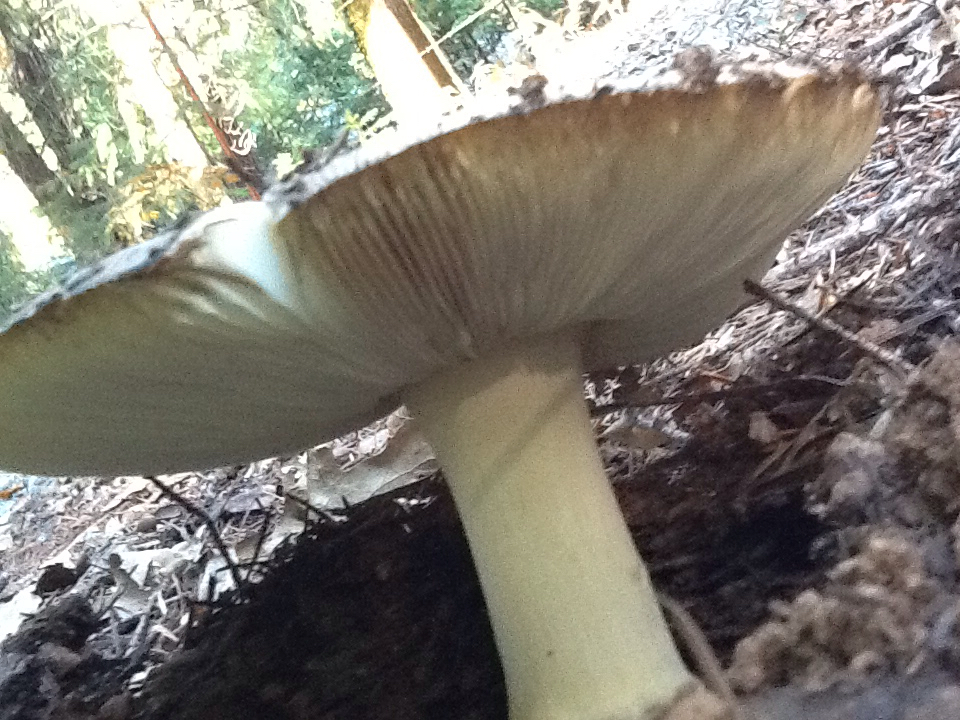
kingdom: Fungi
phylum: Basidiomycota
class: Agaricomycetes
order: Agaricales
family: Amanitaceae
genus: Amanita
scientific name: Amanita calyptroderma
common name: Coccora
